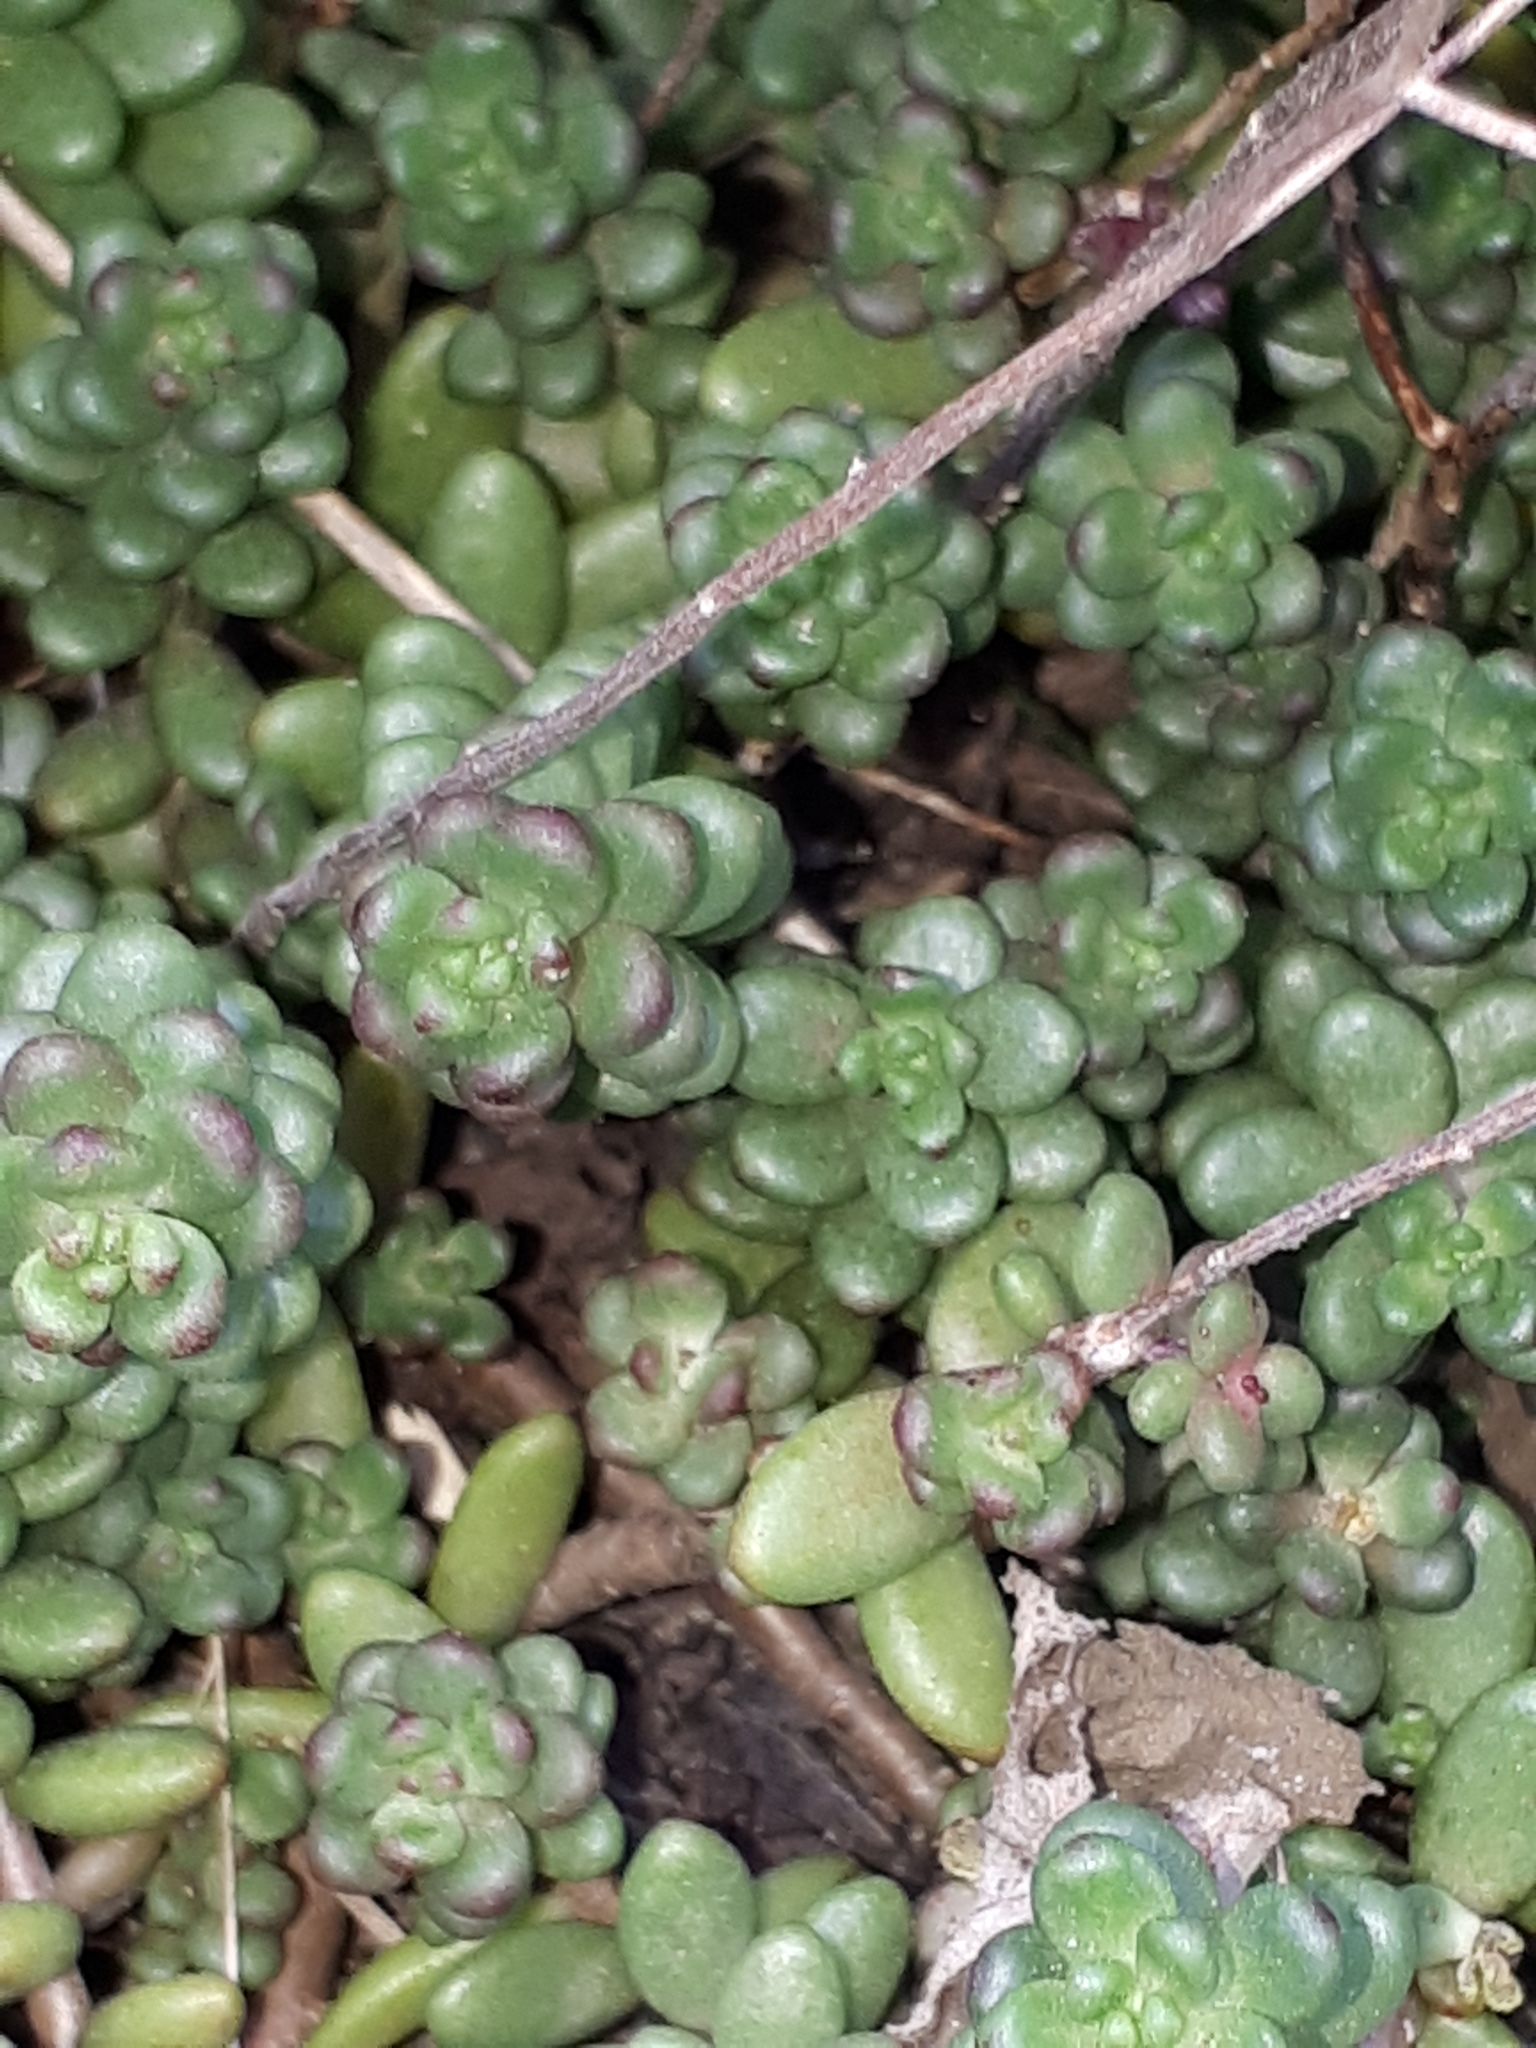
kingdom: Plantae
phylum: Tracheophyta
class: Magnoliopsida
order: Saxifragales
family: Crassulaceae
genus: Sedum
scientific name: Sedum album
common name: White stonecrop
